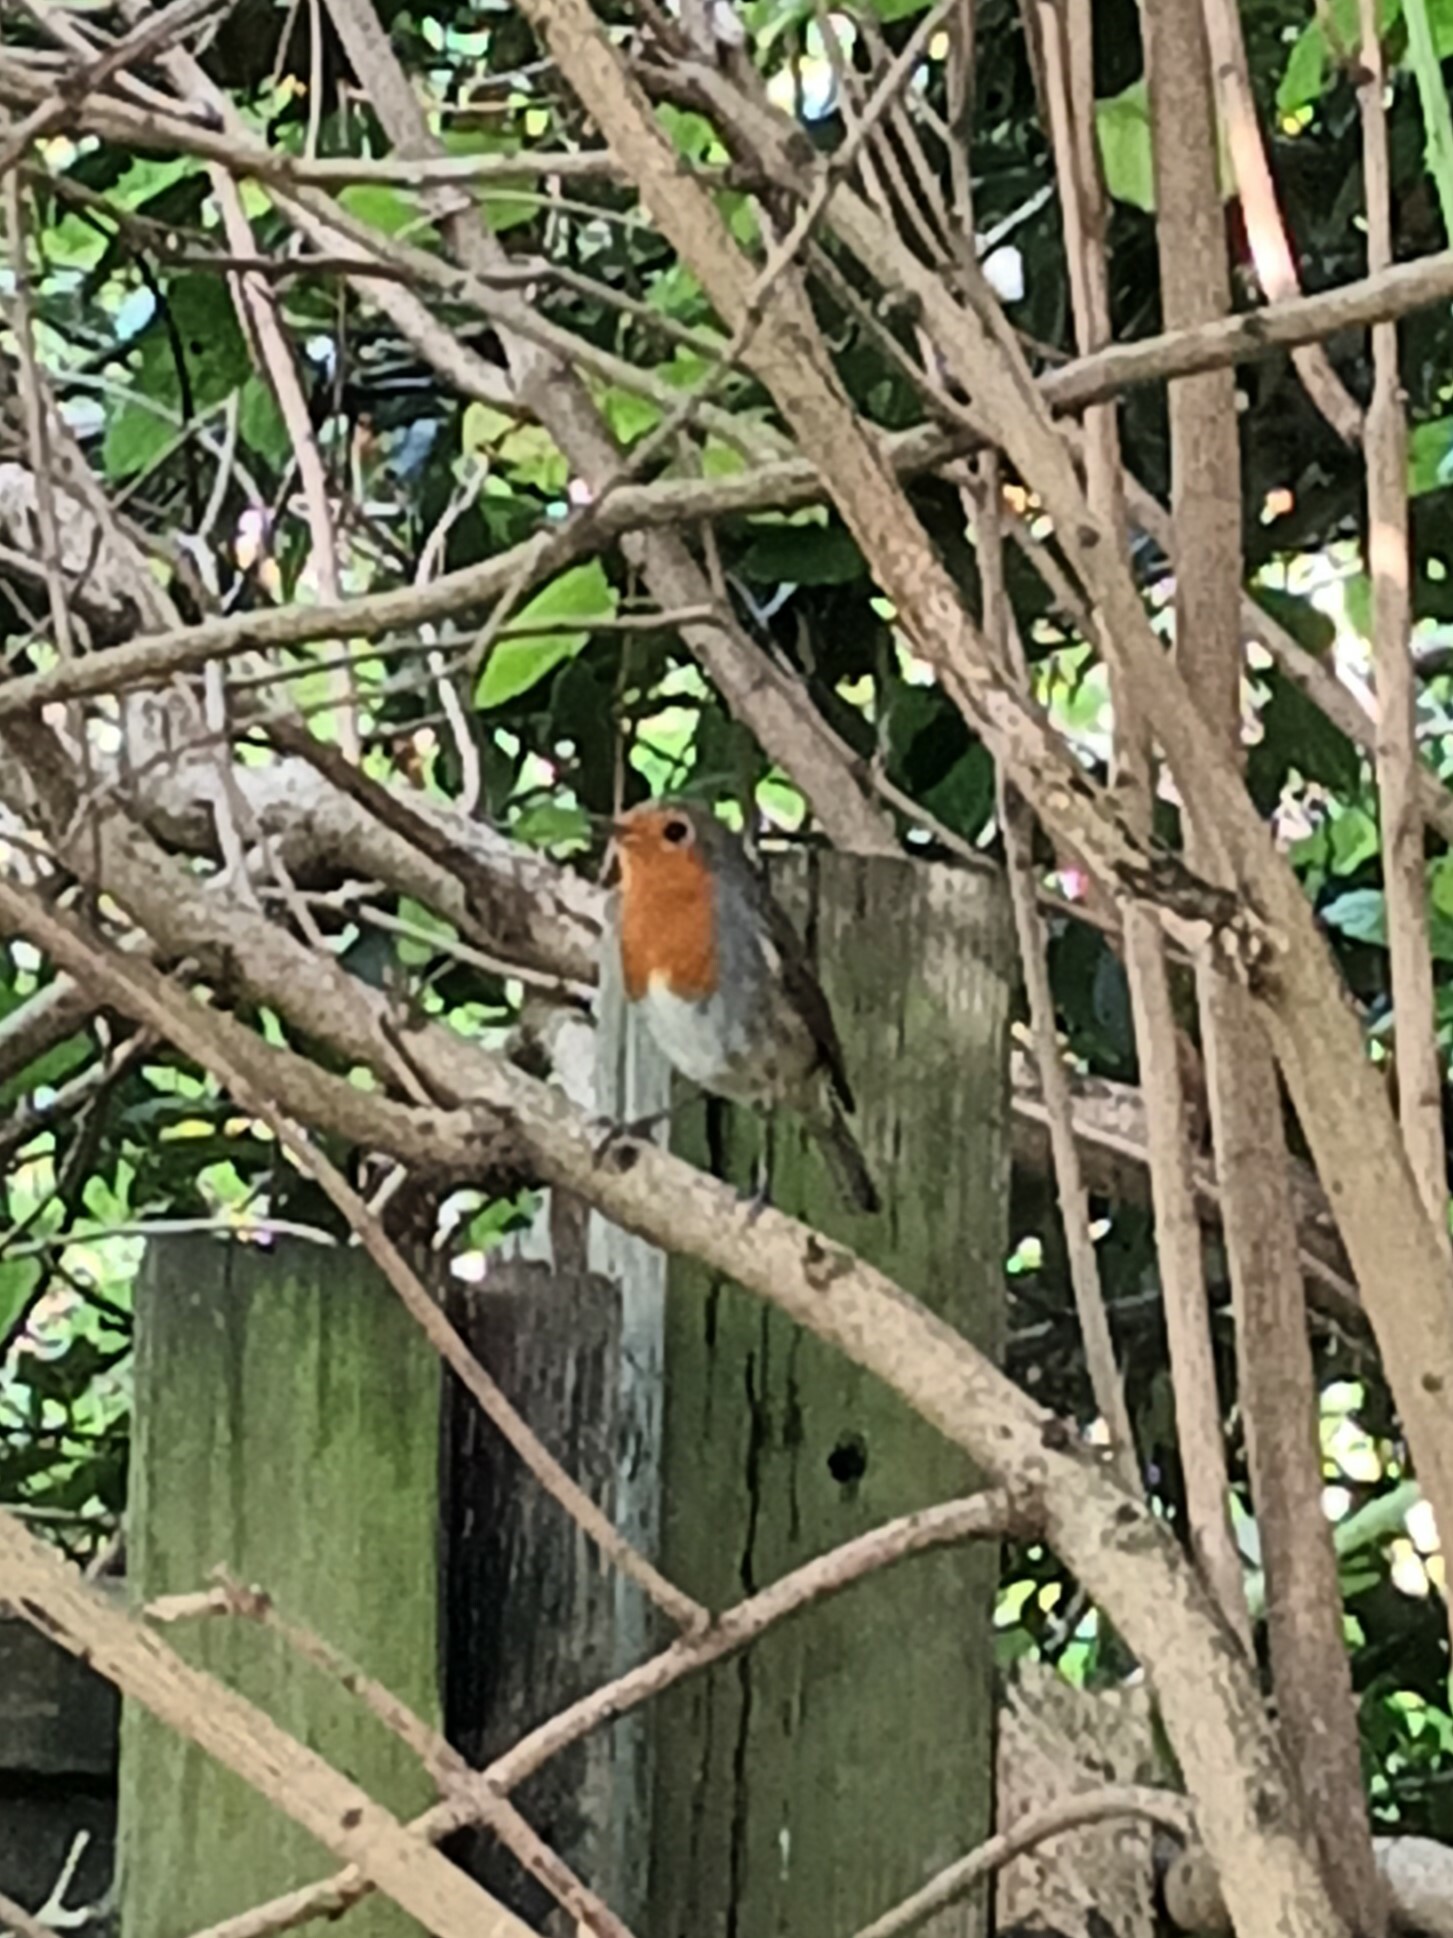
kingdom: Animalia
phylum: Chordata
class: Aves
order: Passeriformes
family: Muscicapidae
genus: Erithacus
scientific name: Erithacus rubecula
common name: European robin
